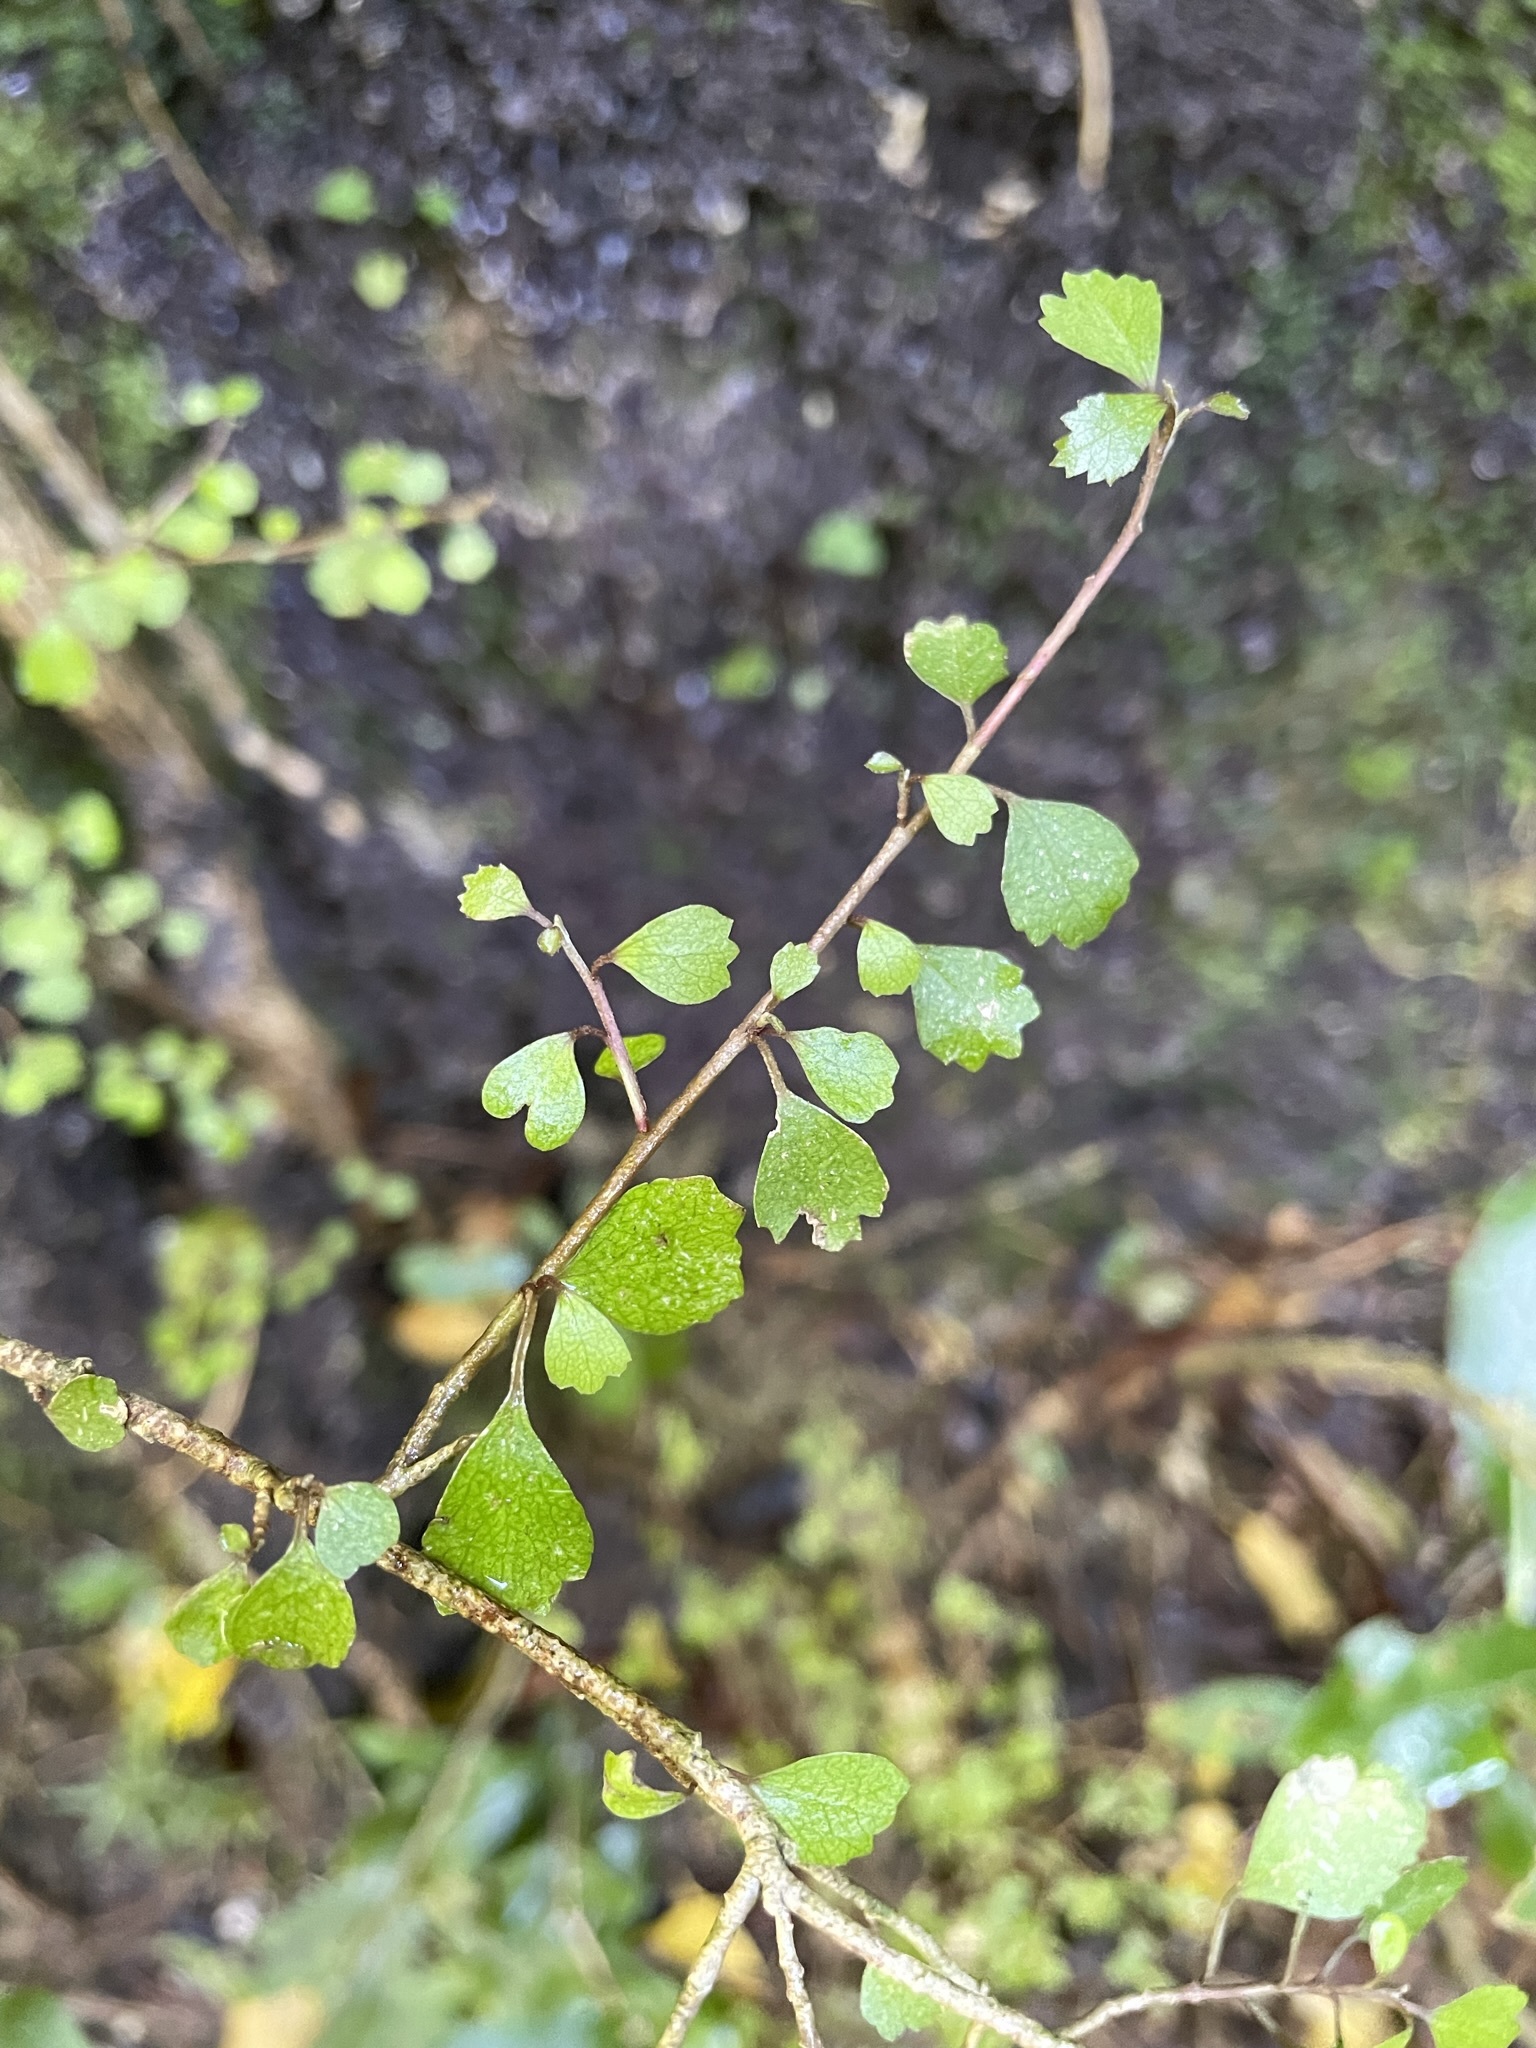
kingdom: Plantae
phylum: Tracheophyta
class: Magnoliopsida
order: Malvales
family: Malvaceae
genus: Hoheria
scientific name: Hoheria angustifolia
